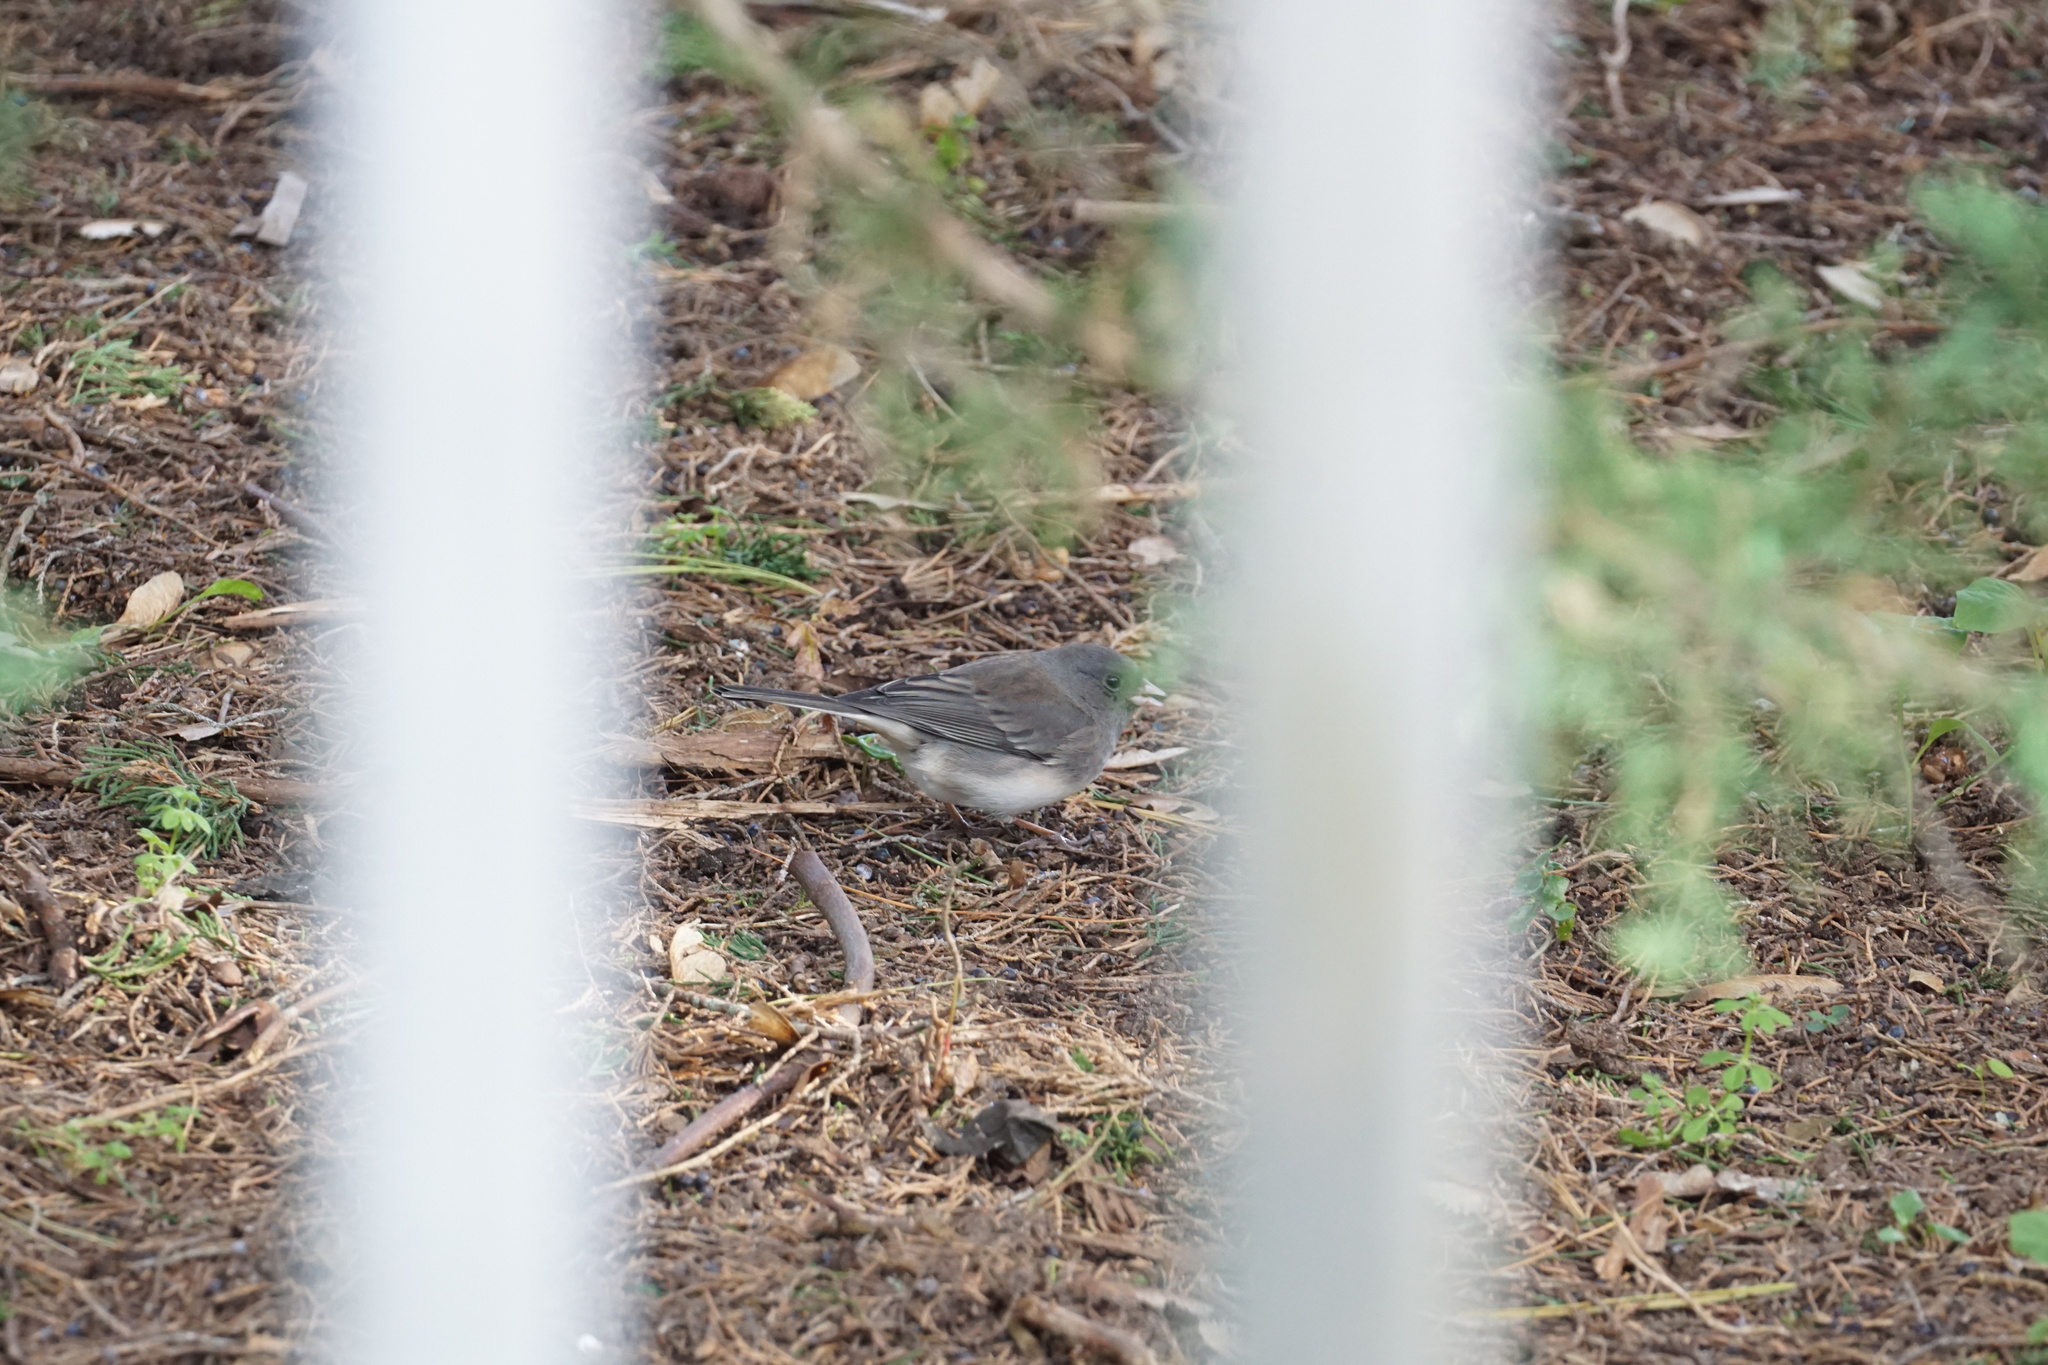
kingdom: Animalia
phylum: Chordata
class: Aves
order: Passeriformes
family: Passerellidae
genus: Junco
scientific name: Junco hyemalis
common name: Dark-eyed junco
